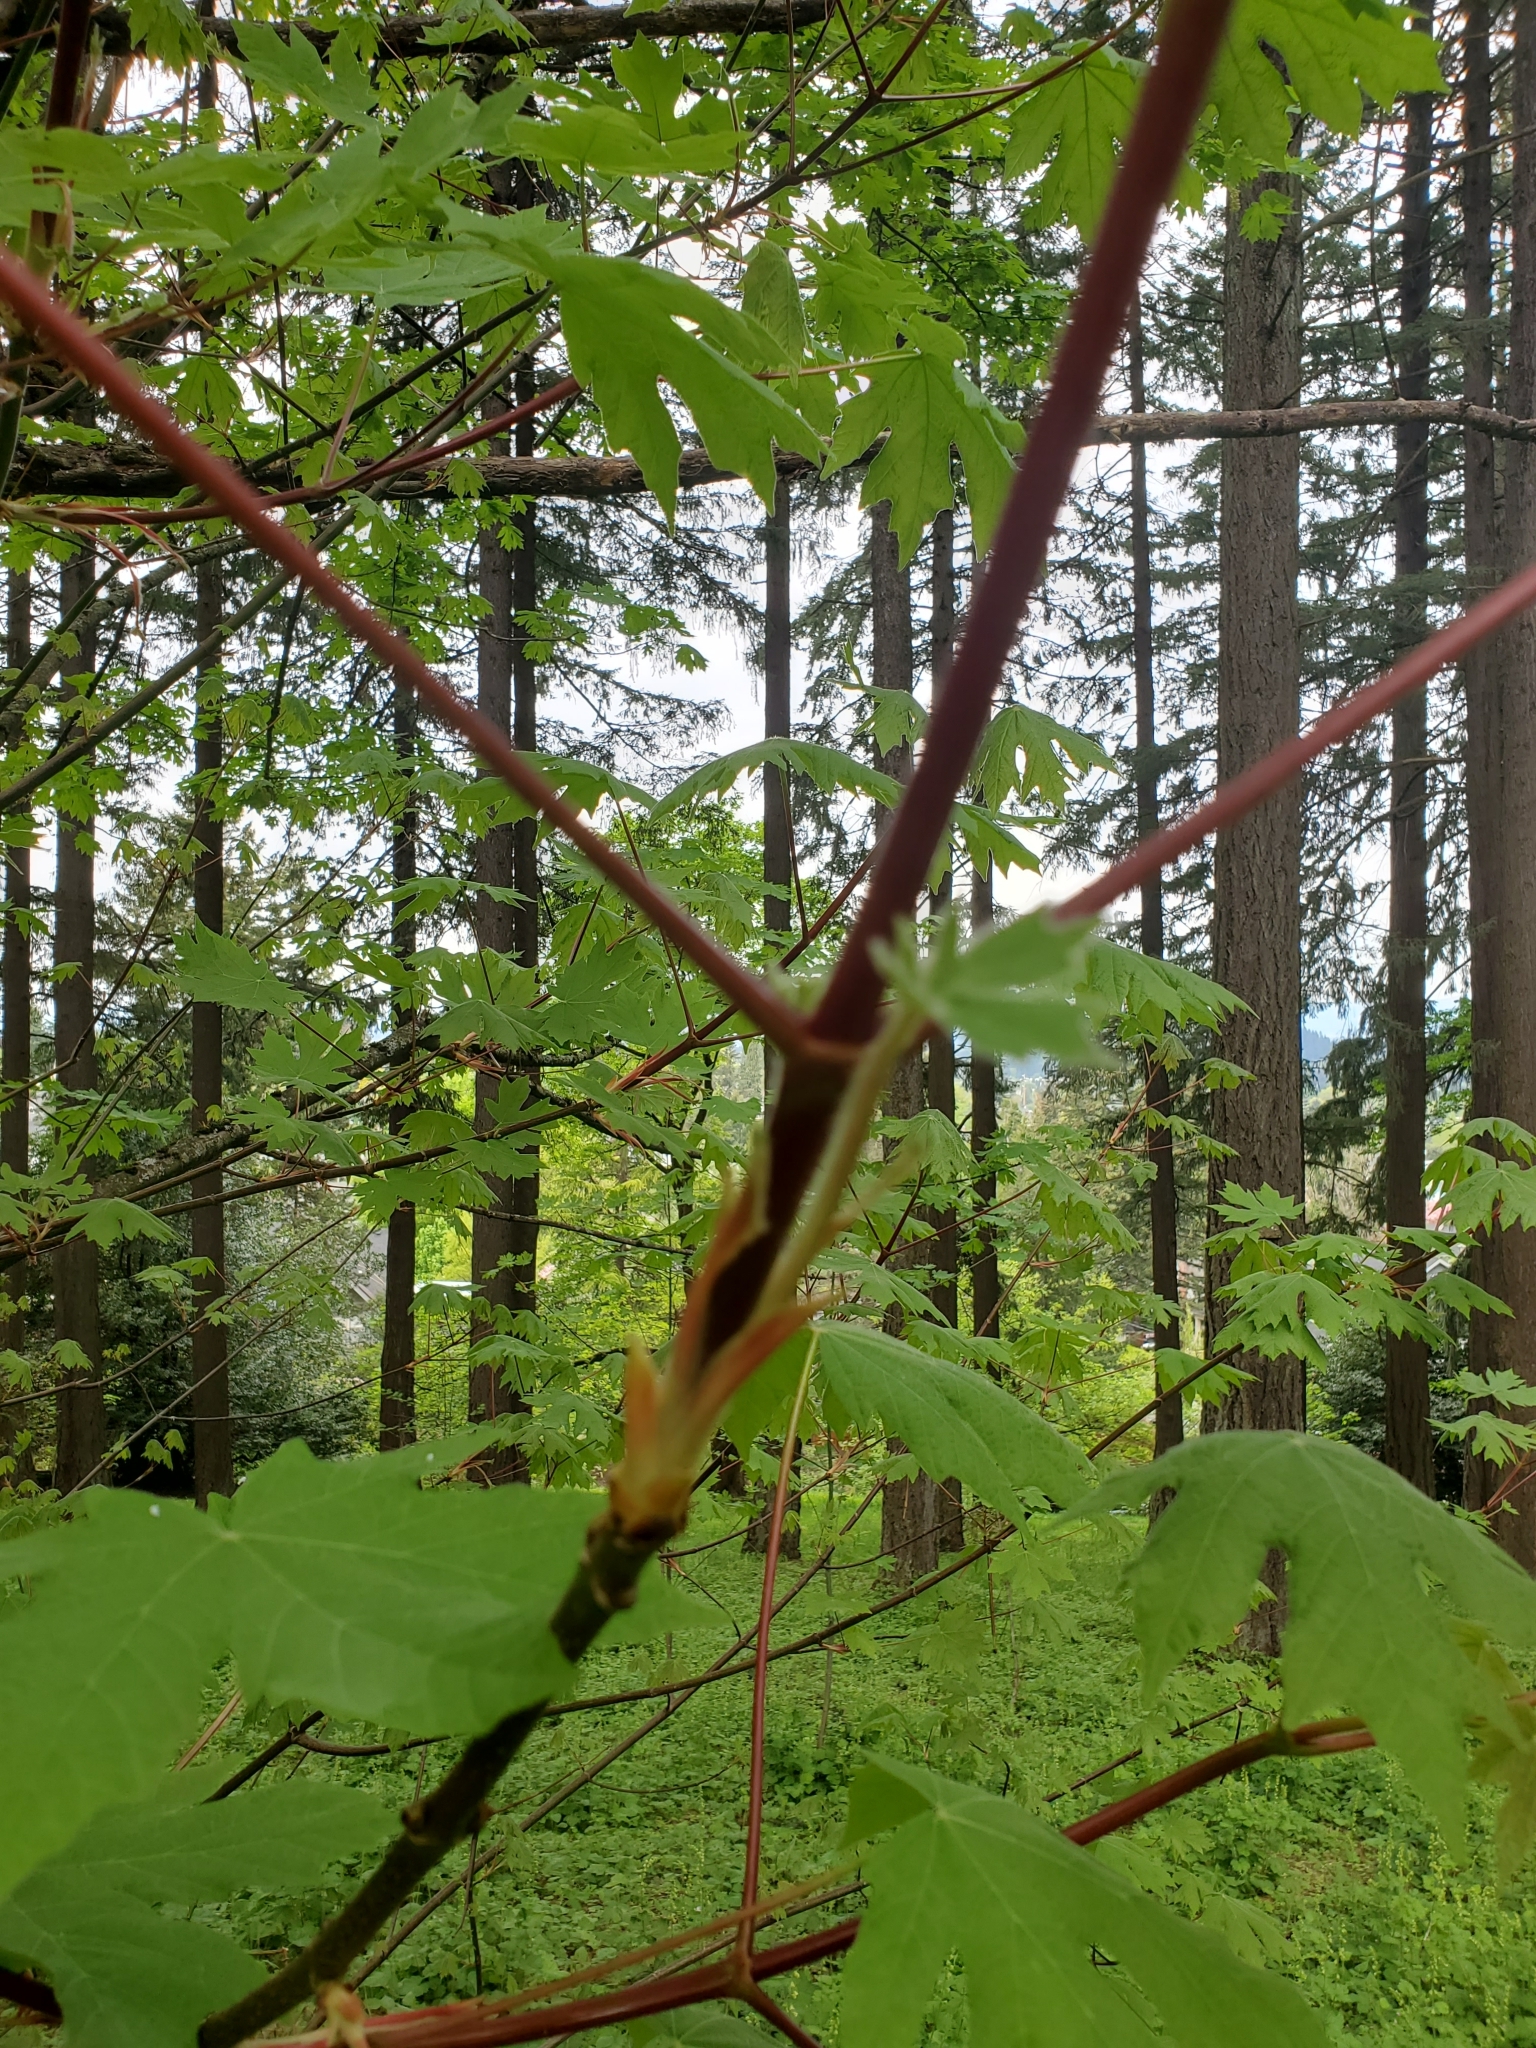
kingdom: Plantae
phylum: Tracheophyta
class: Magnoliopsida
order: Sapindales
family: Sapindaceae
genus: Acer
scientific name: Acer macrophyllum
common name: Oregon maple
